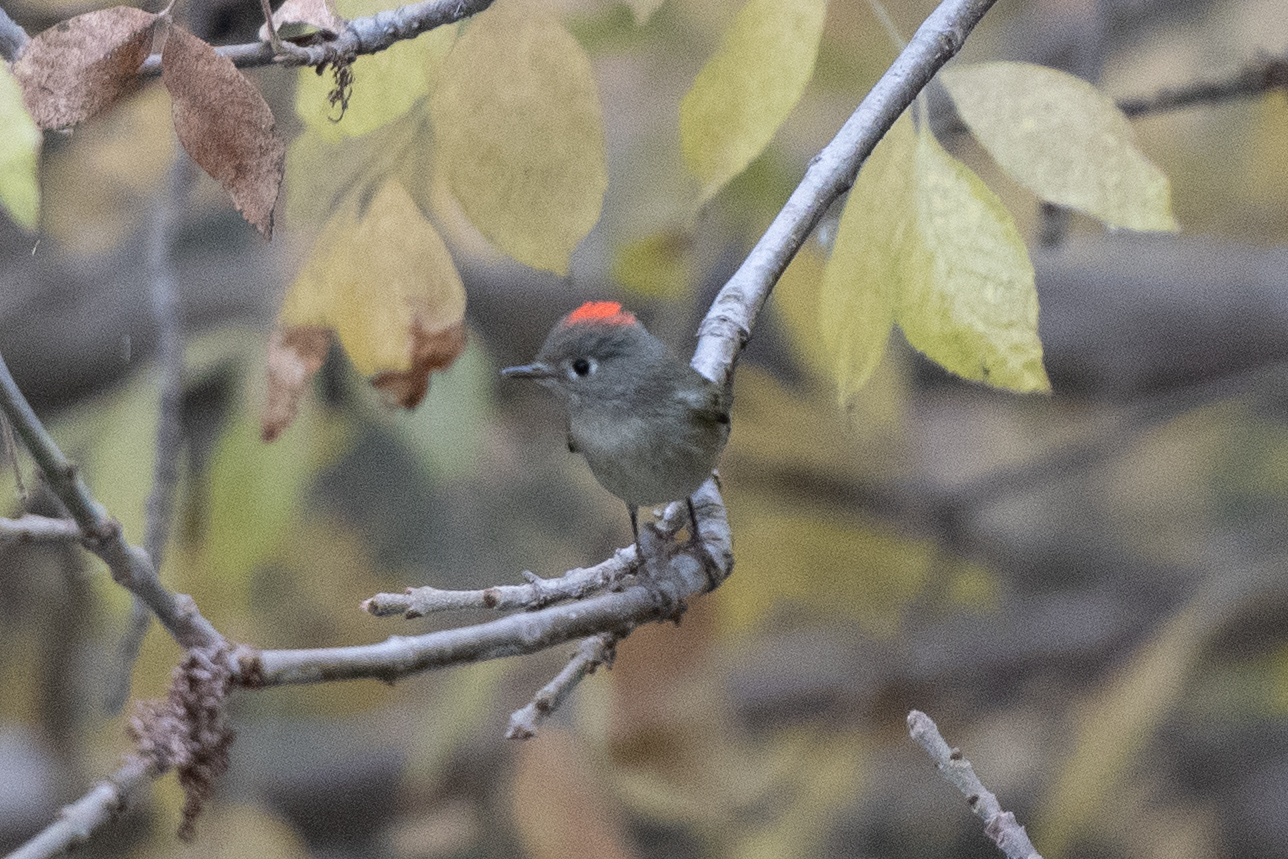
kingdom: Animalia
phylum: Chordata
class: Aves
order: Passeriformes
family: Regulidae
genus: Regulus
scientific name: Regulus calendula
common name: Ruby-crowned kinglet
